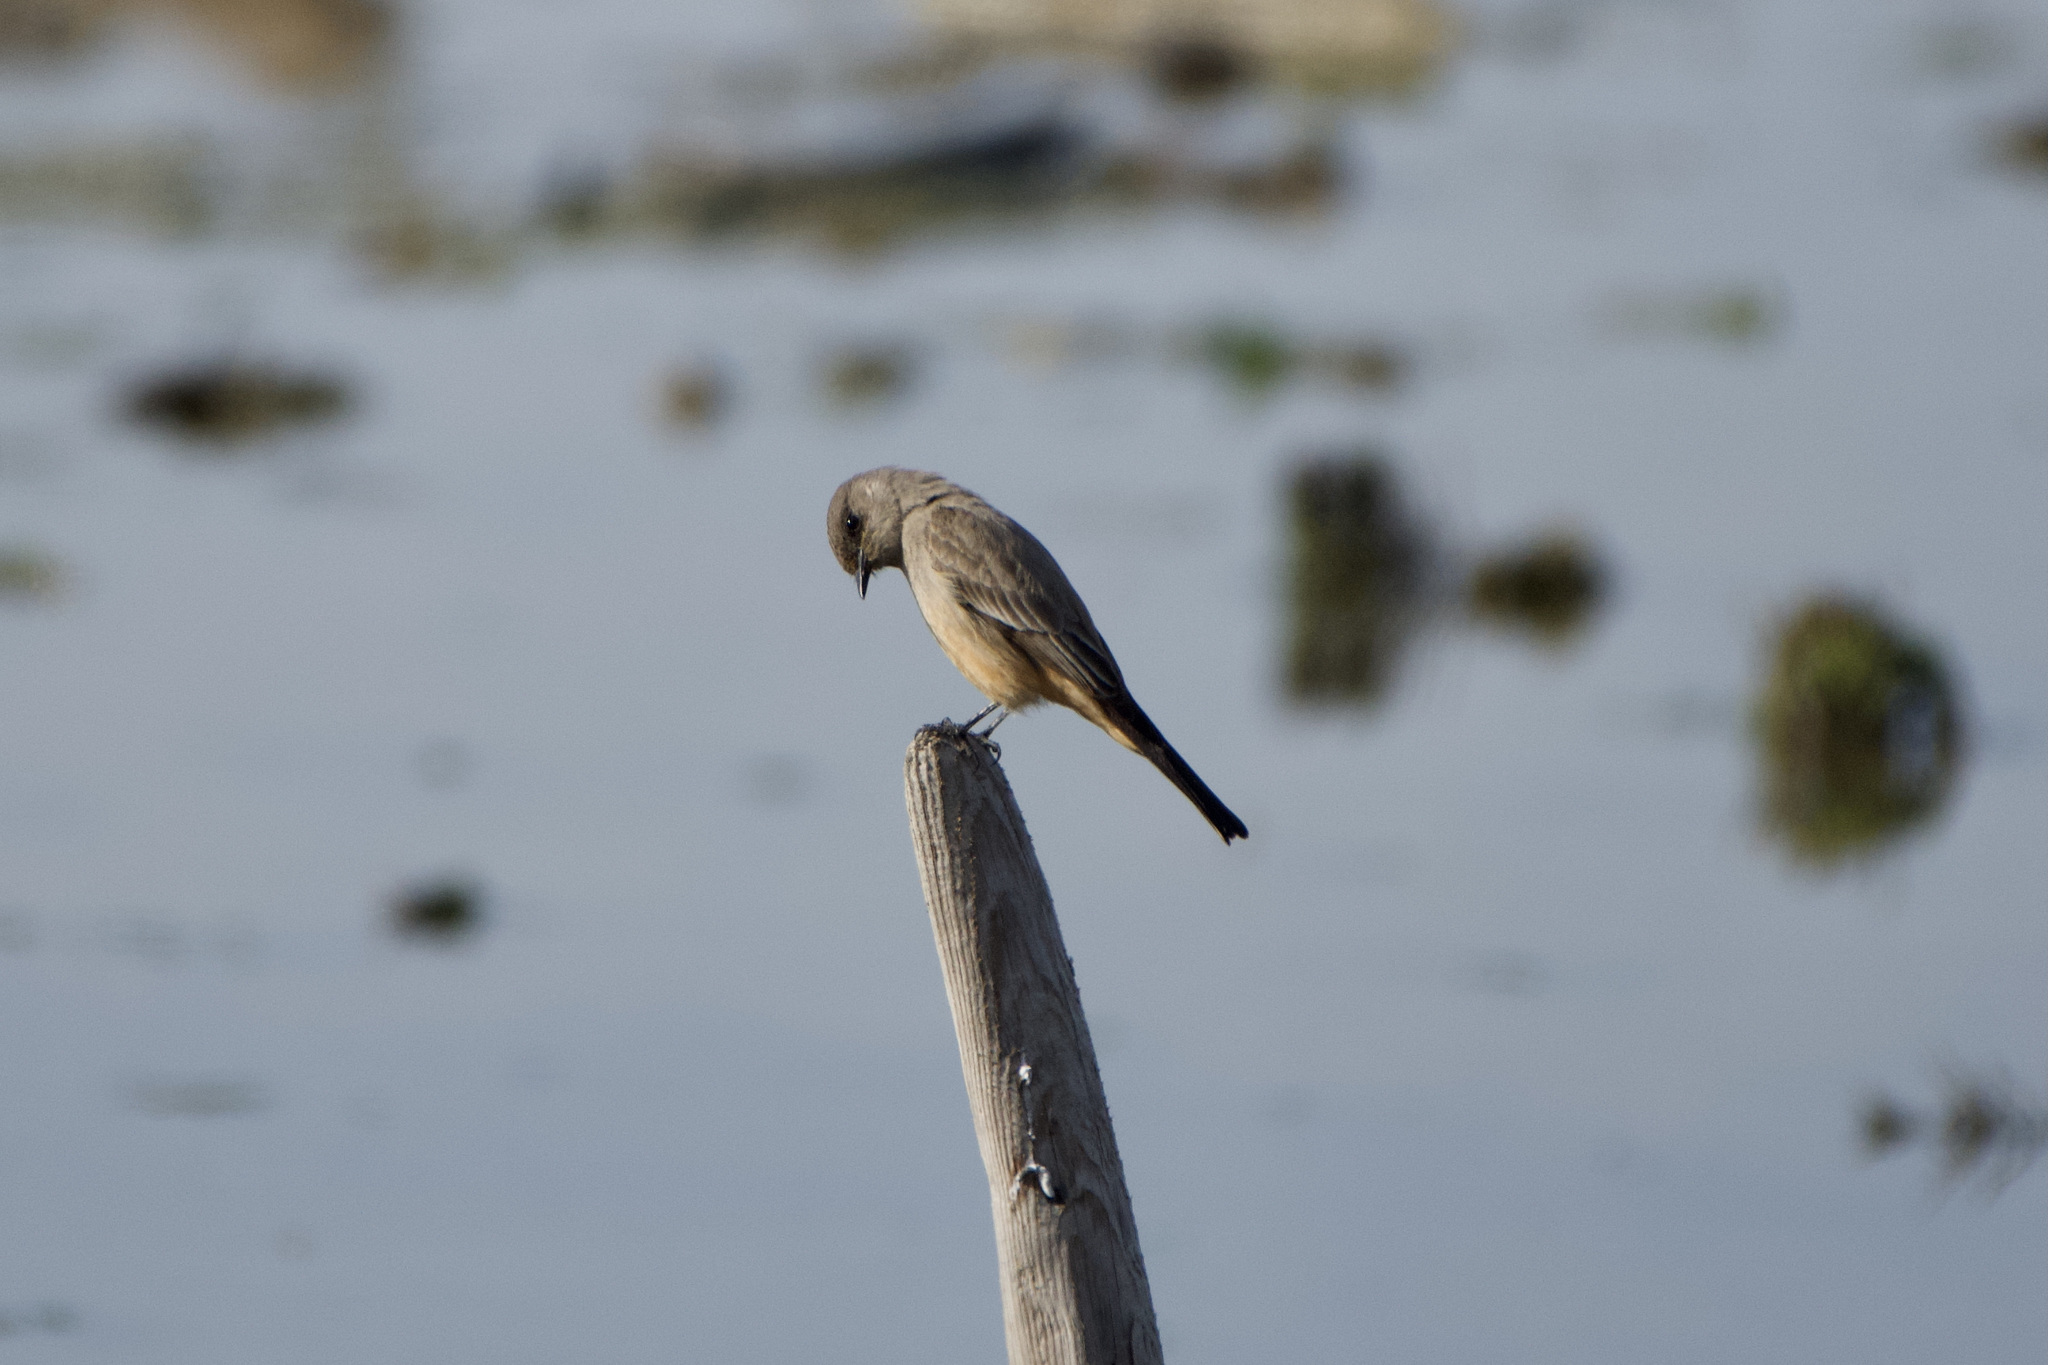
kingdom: Animalia
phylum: Chordata
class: Aves
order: Passeriformes
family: Tyrannidae
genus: Sayornis
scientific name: Sayornis saya
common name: Say's phoebe
